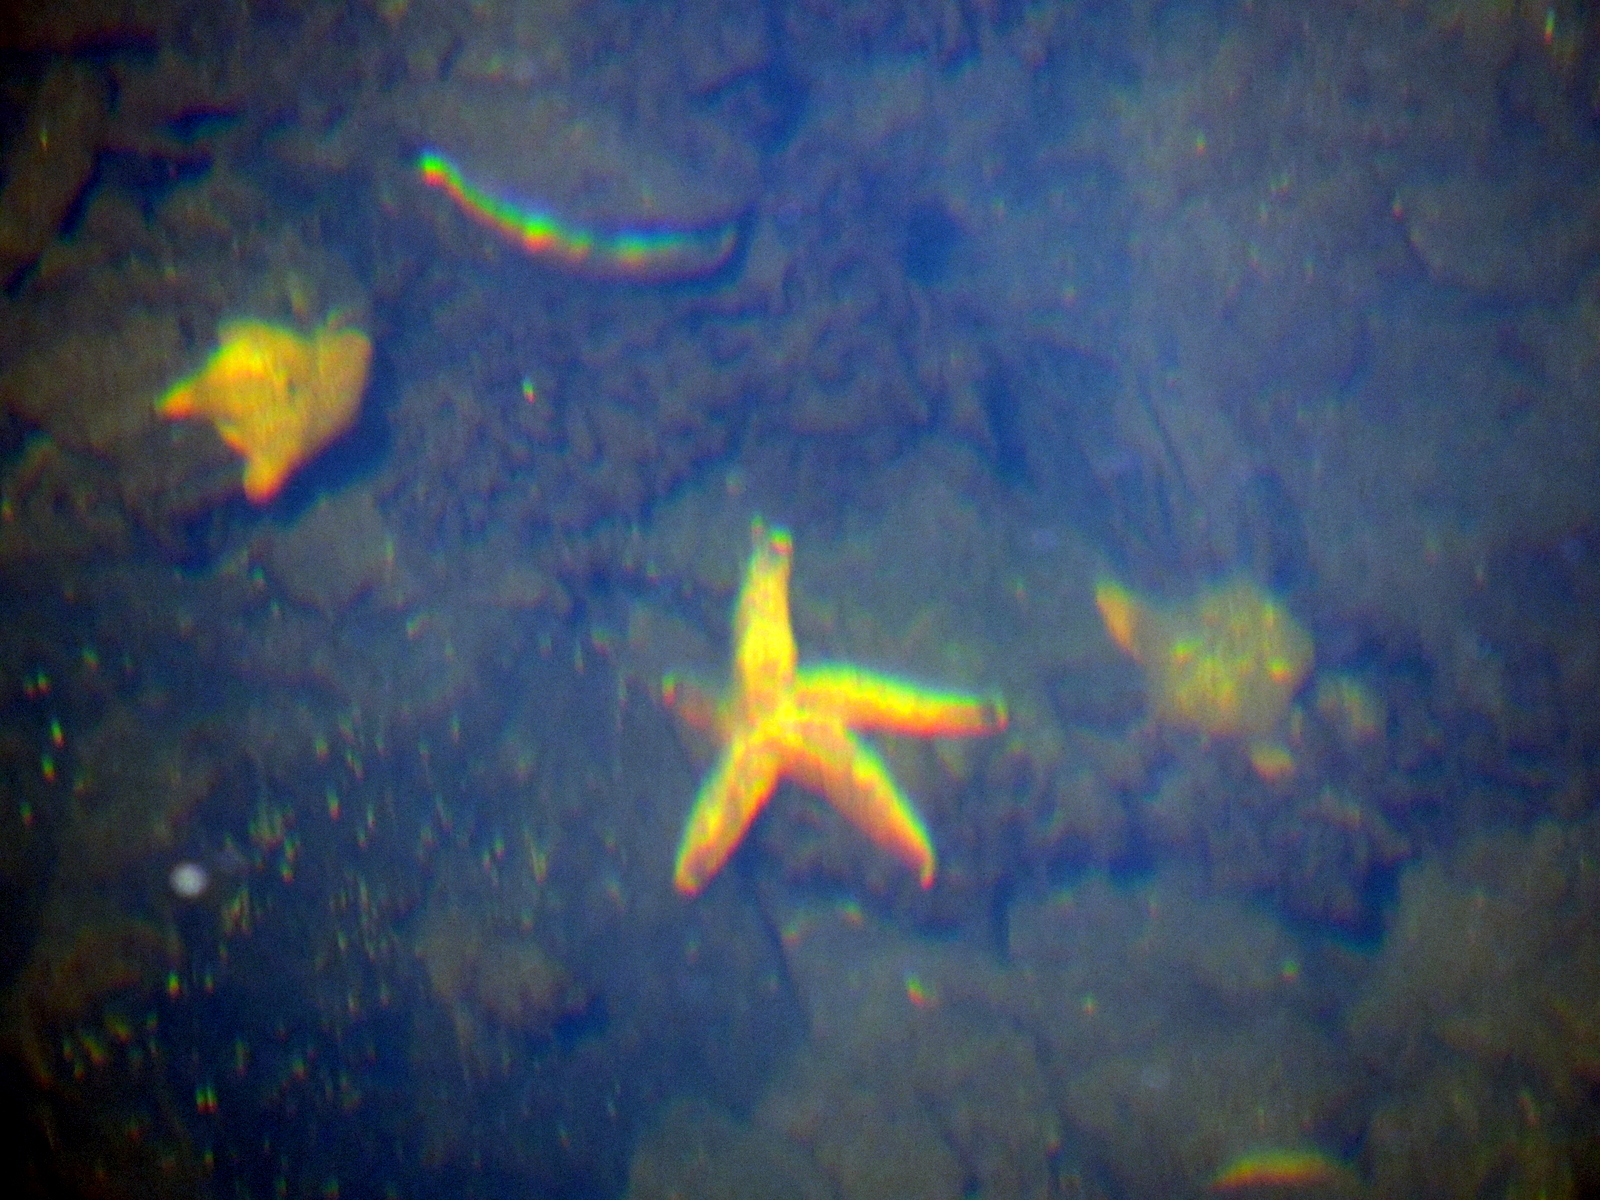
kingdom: Animalia
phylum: Echinodermata
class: Asteroidea
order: Forcipulatida
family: Asteriidae
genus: Asterias
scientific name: Asterias amurensis
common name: Flat-bottomed star
